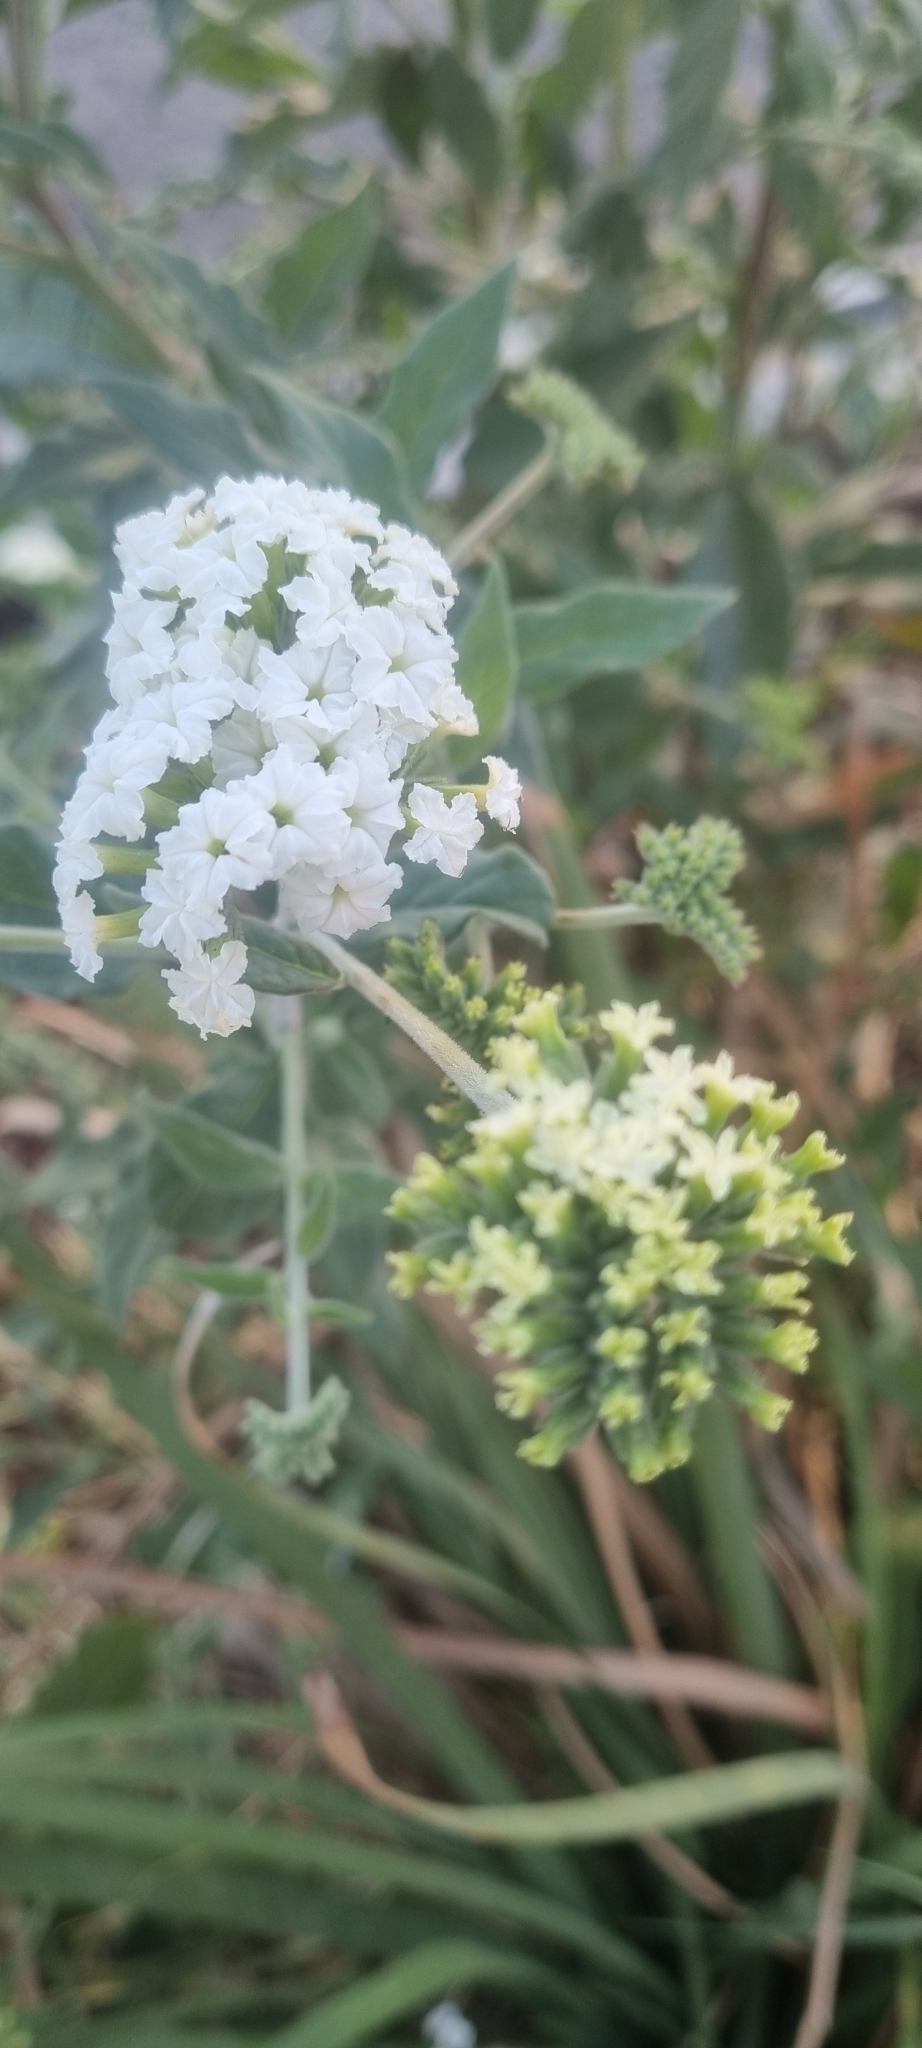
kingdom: Plantae
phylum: Tracheophyta
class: Magnoliopsida
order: Boraginales
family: Heliotropiaceae
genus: Tournefortia
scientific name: Tournefortia mutabilis
